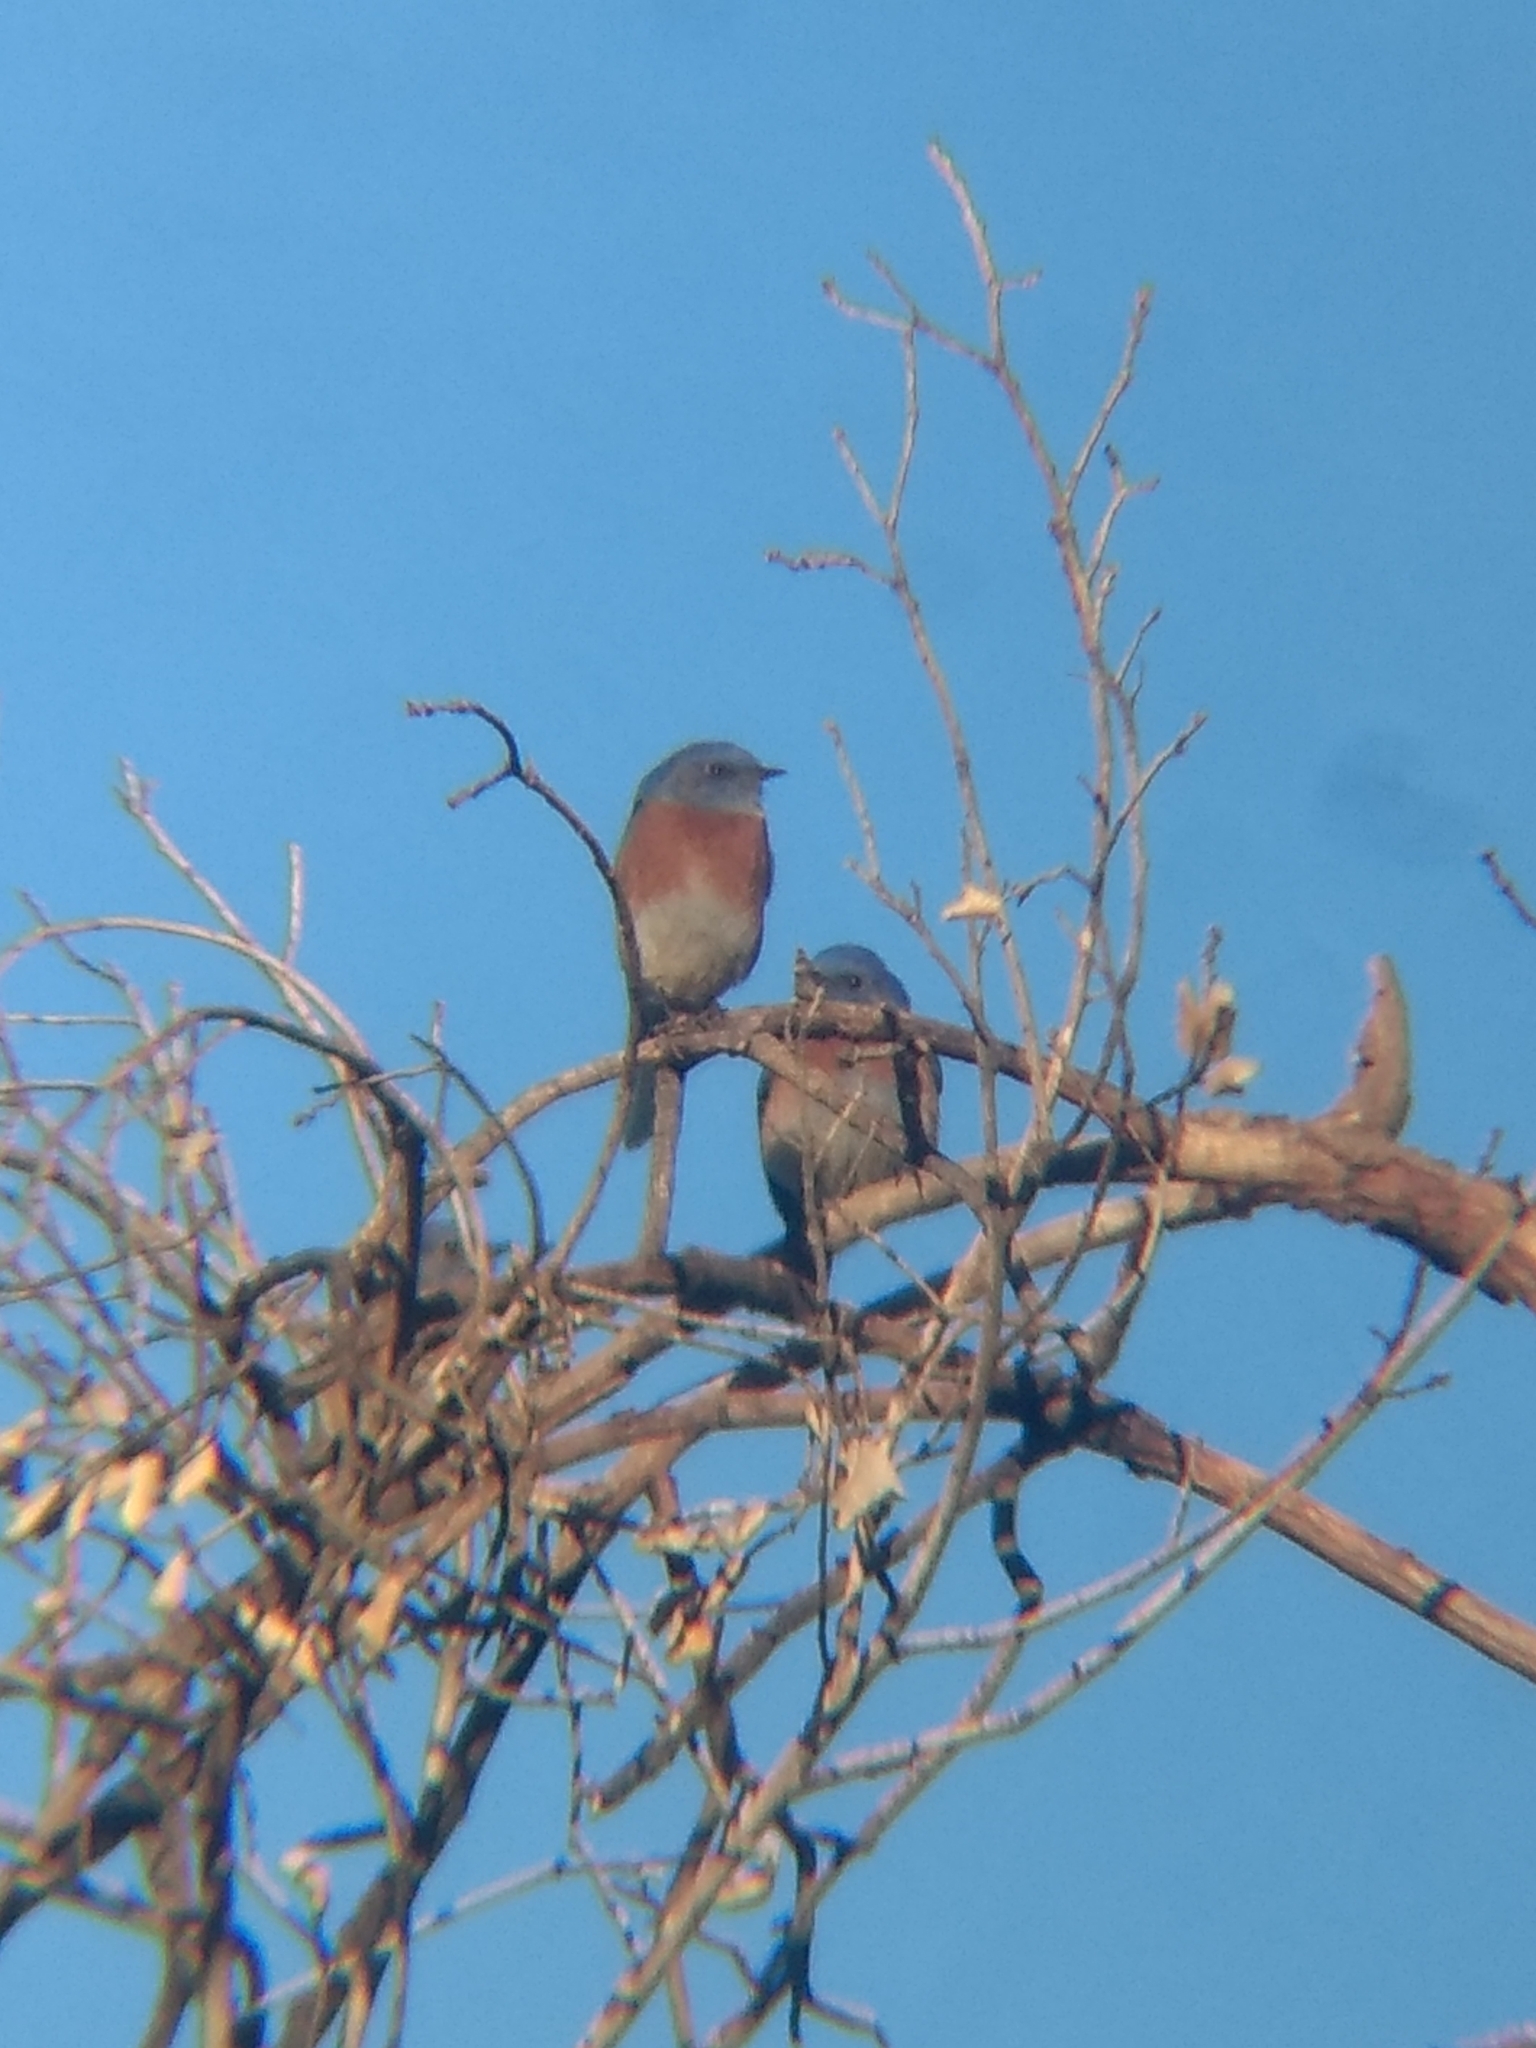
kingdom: Animalia
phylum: Chordata
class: Aves
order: Passeriformes
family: Turdidae
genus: Sialia
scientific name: Sialia mexicana
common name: Western bluebird
